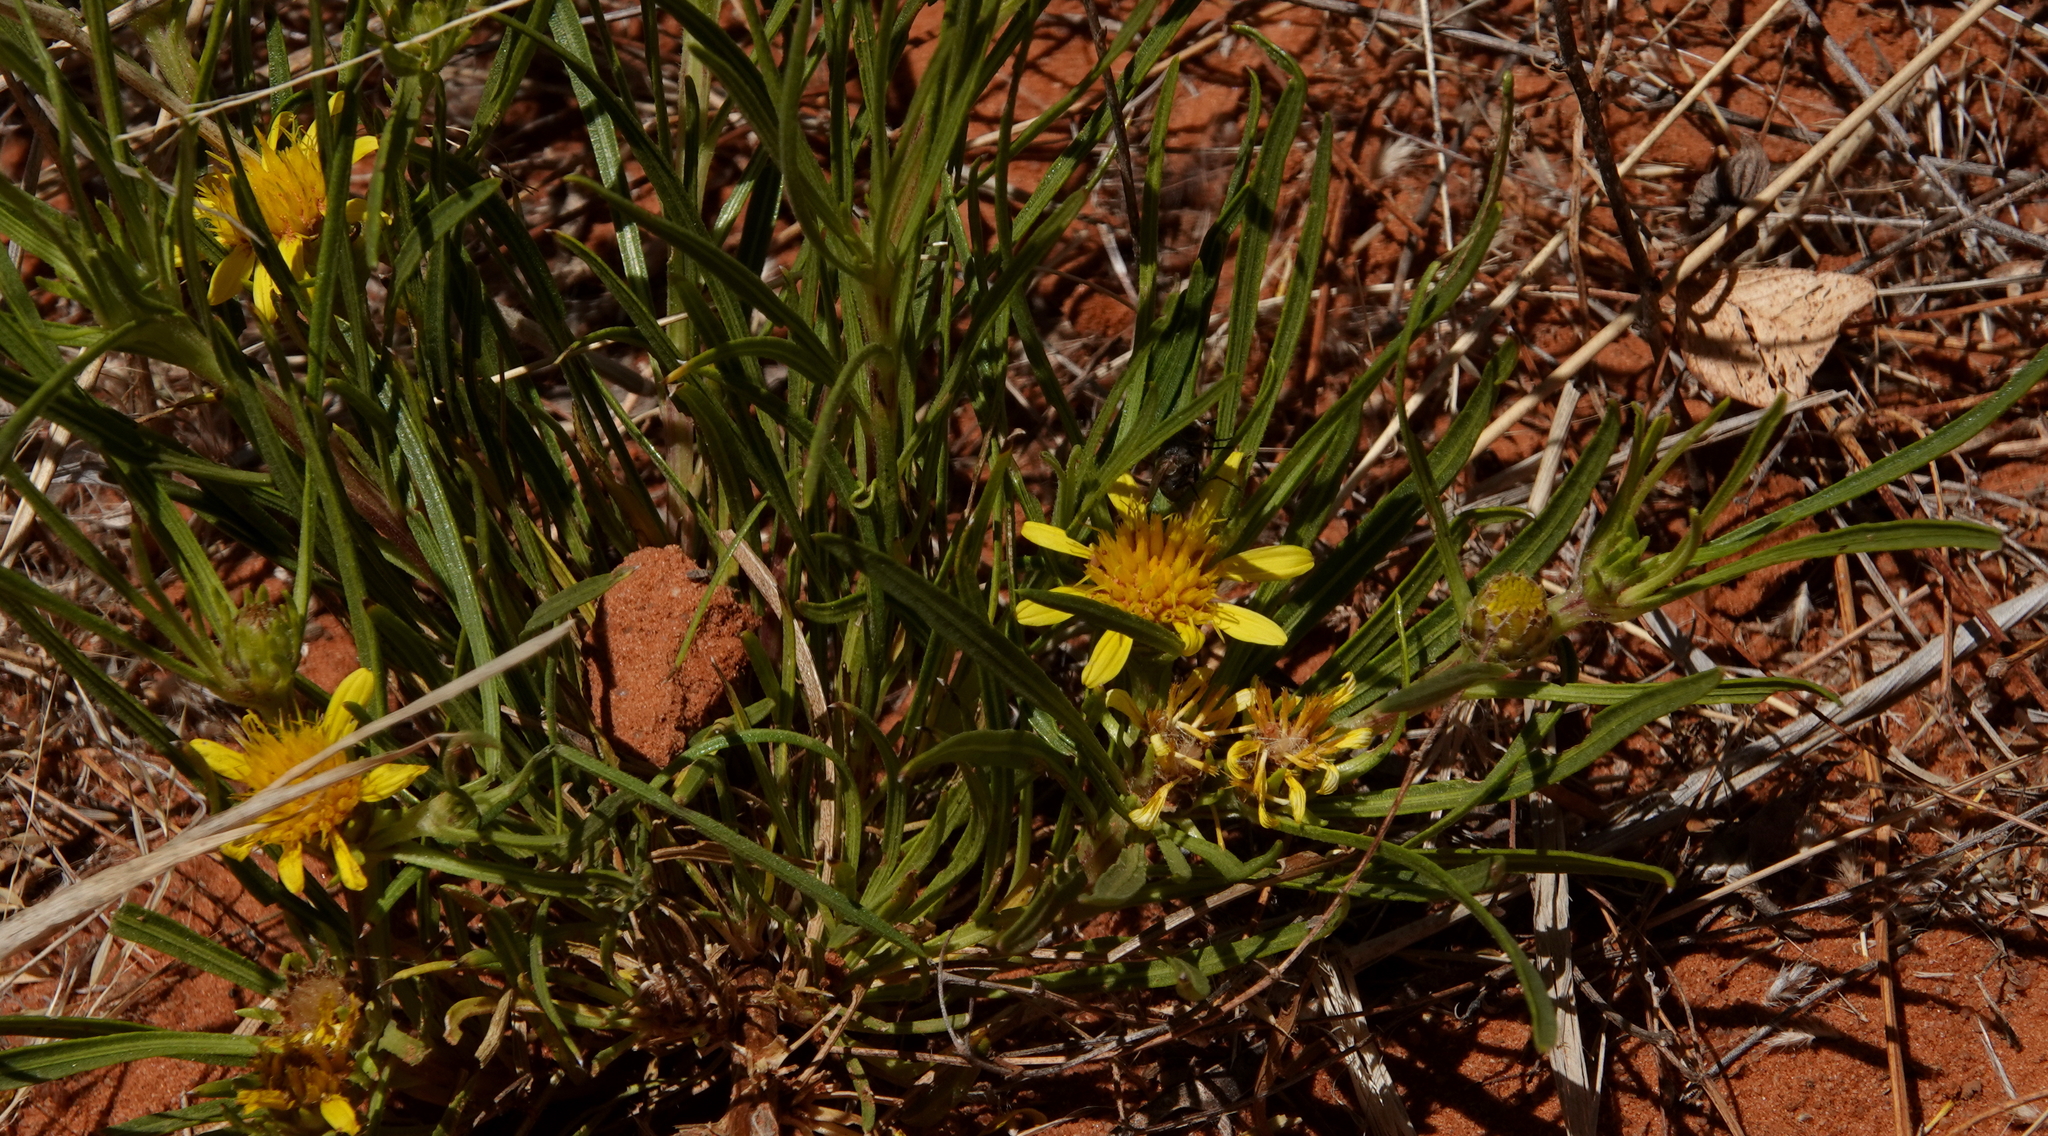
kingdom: Plantae
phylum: Tracheophyta
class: Magnoliopsida
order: Asterales
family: Asteraceae
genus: Geigeria
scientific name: Geigeria ornativa
